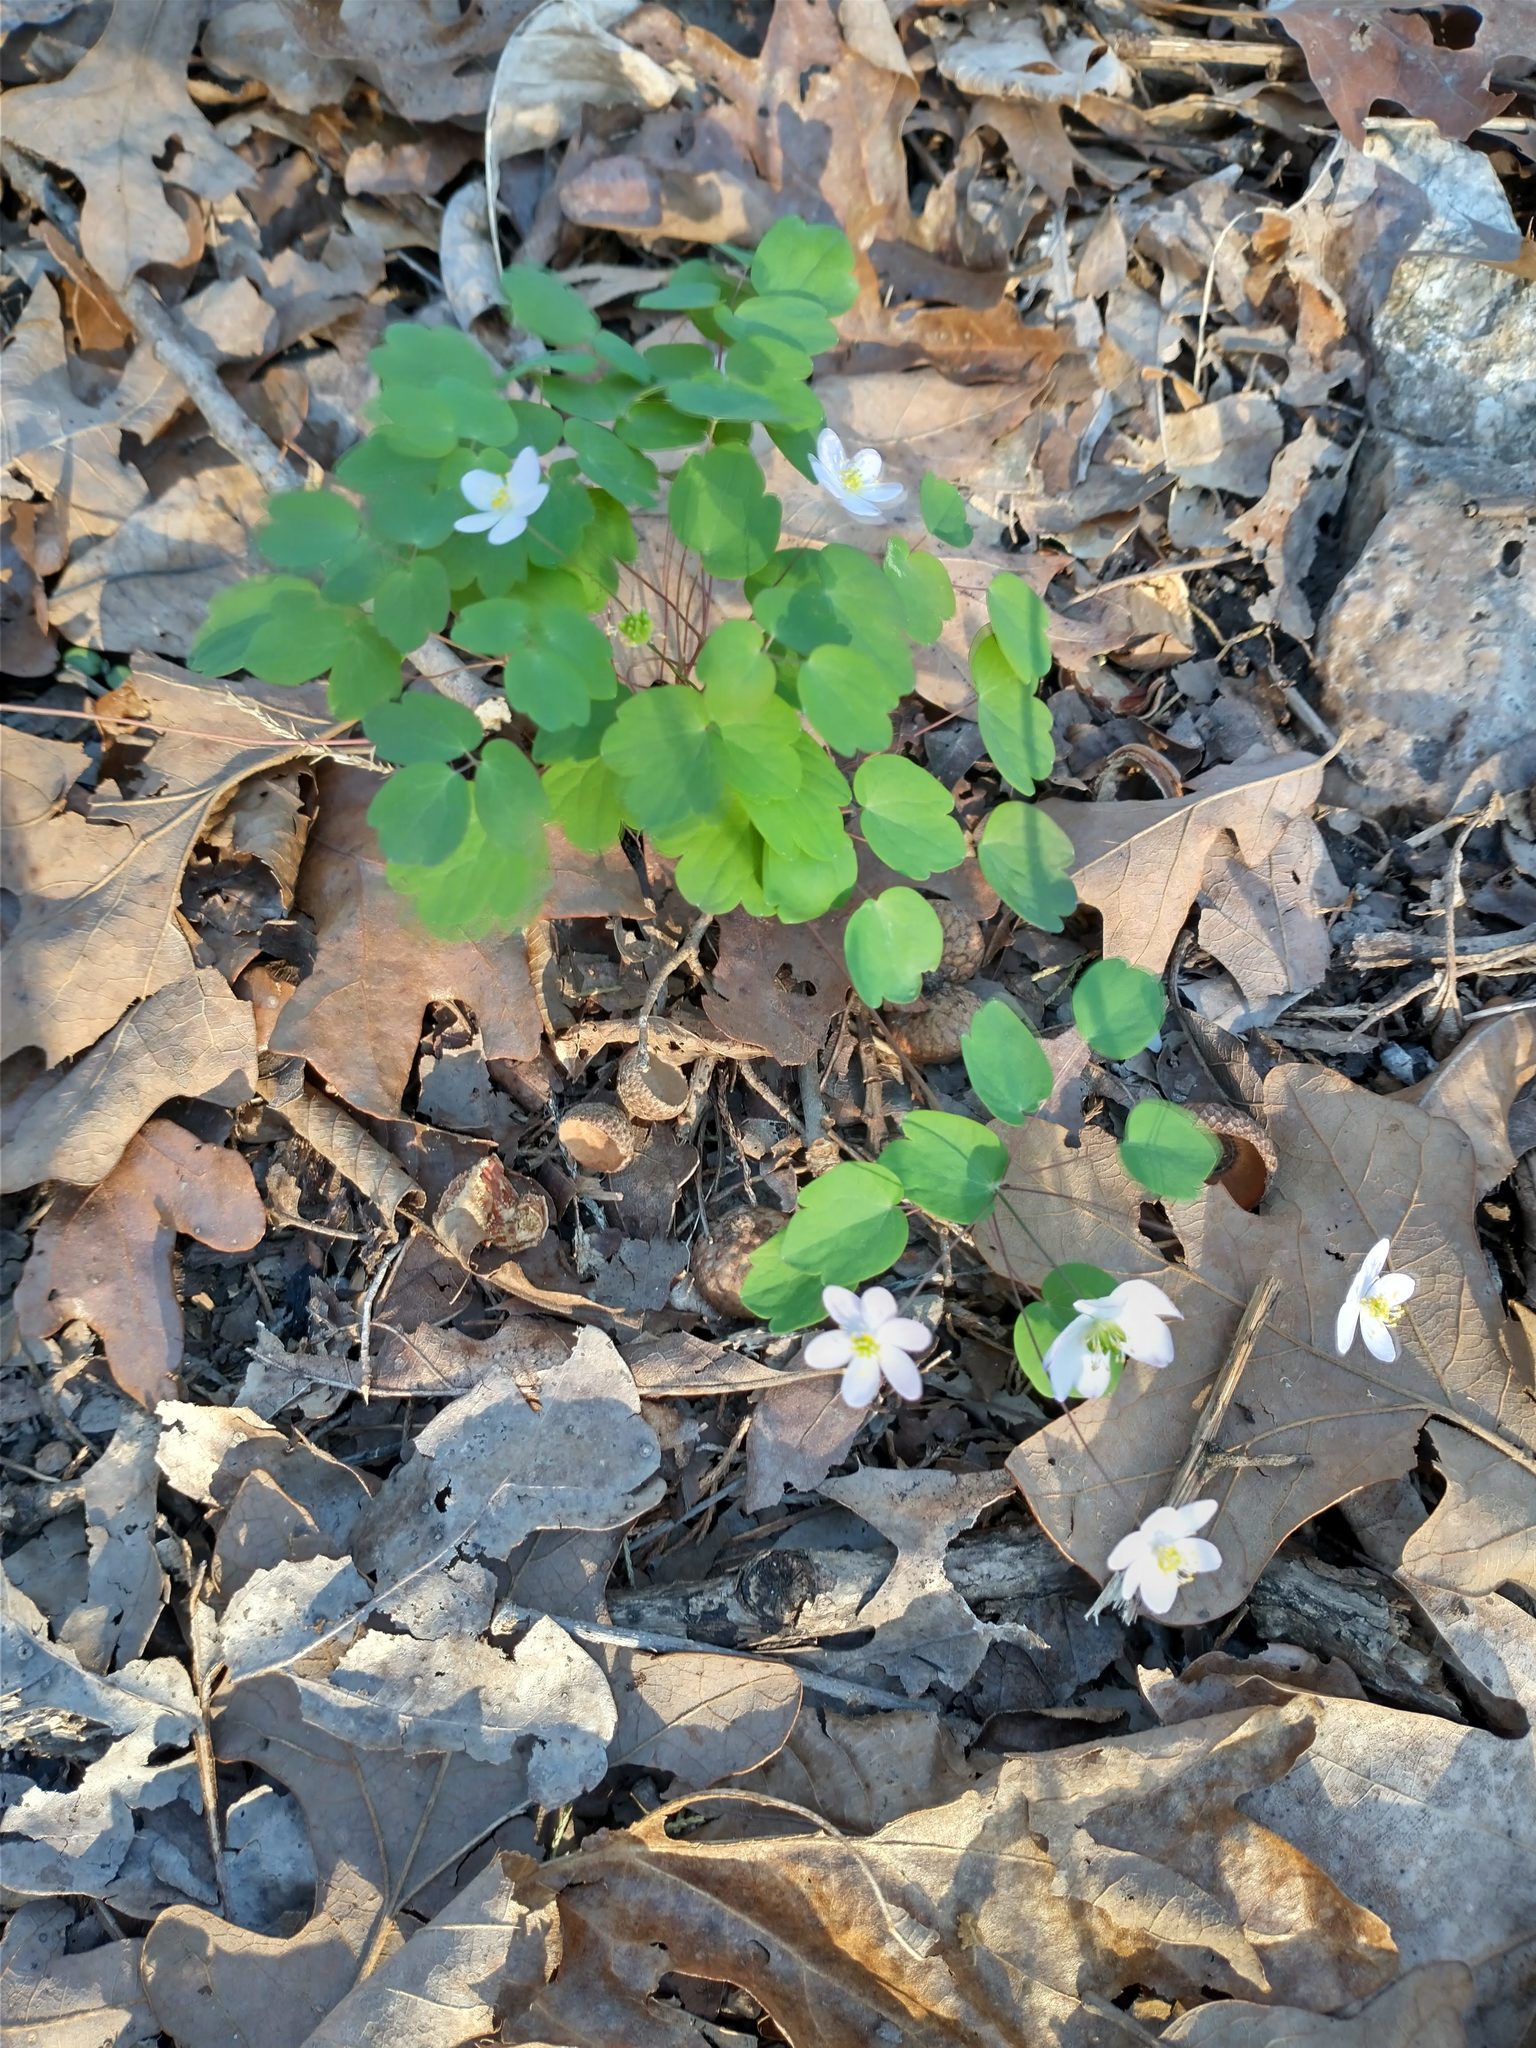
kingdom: Plantae
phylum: Tracheophyta
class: Magnoliopsida
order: Ranunculales
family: Ranunculaceae
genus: Thalictrum
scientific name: Thalictrum thalictroides
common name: Rue-anemone
